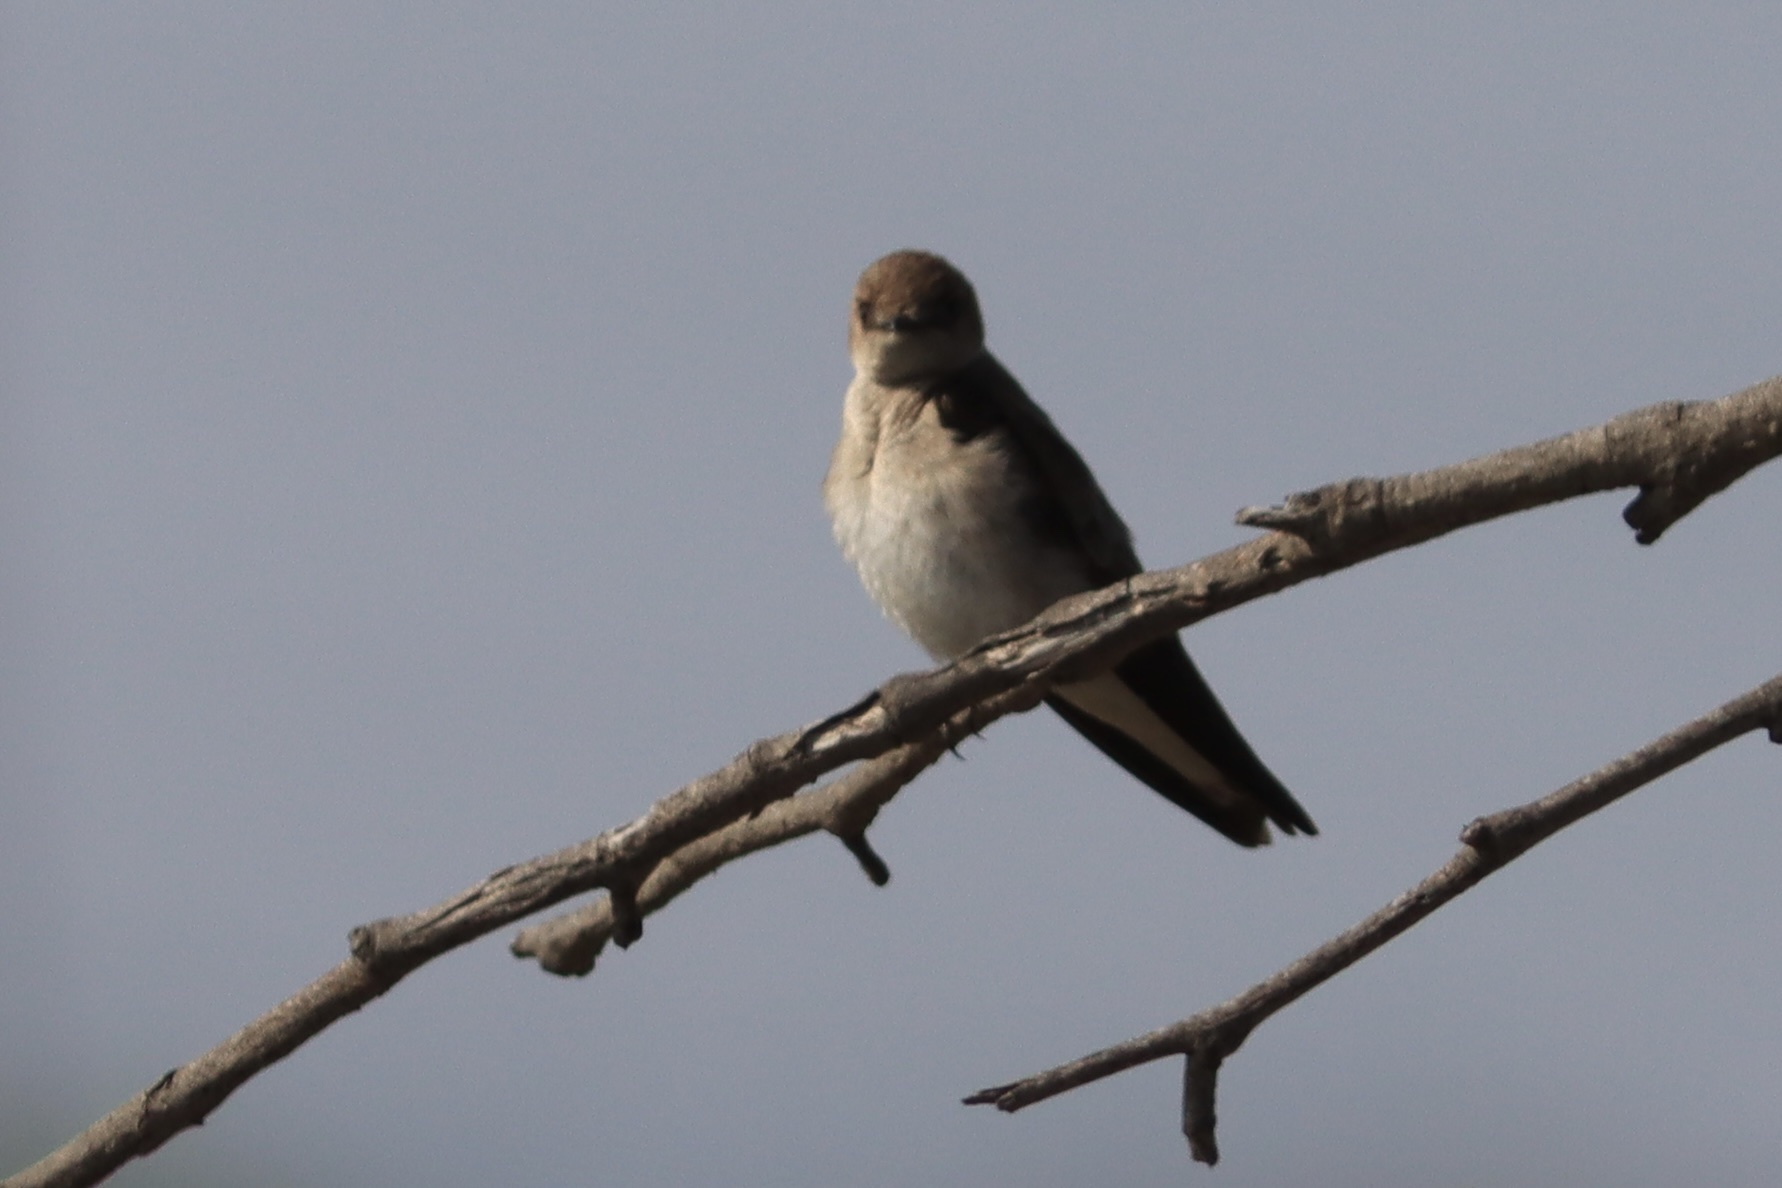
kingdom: Animalia
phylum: Chordata
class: Aves
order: Passeriformes
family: Hirundinidae
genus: Stelgidopteryx
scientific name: Stelgidopteryx serripennis
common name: Northern rough-winged swallow
